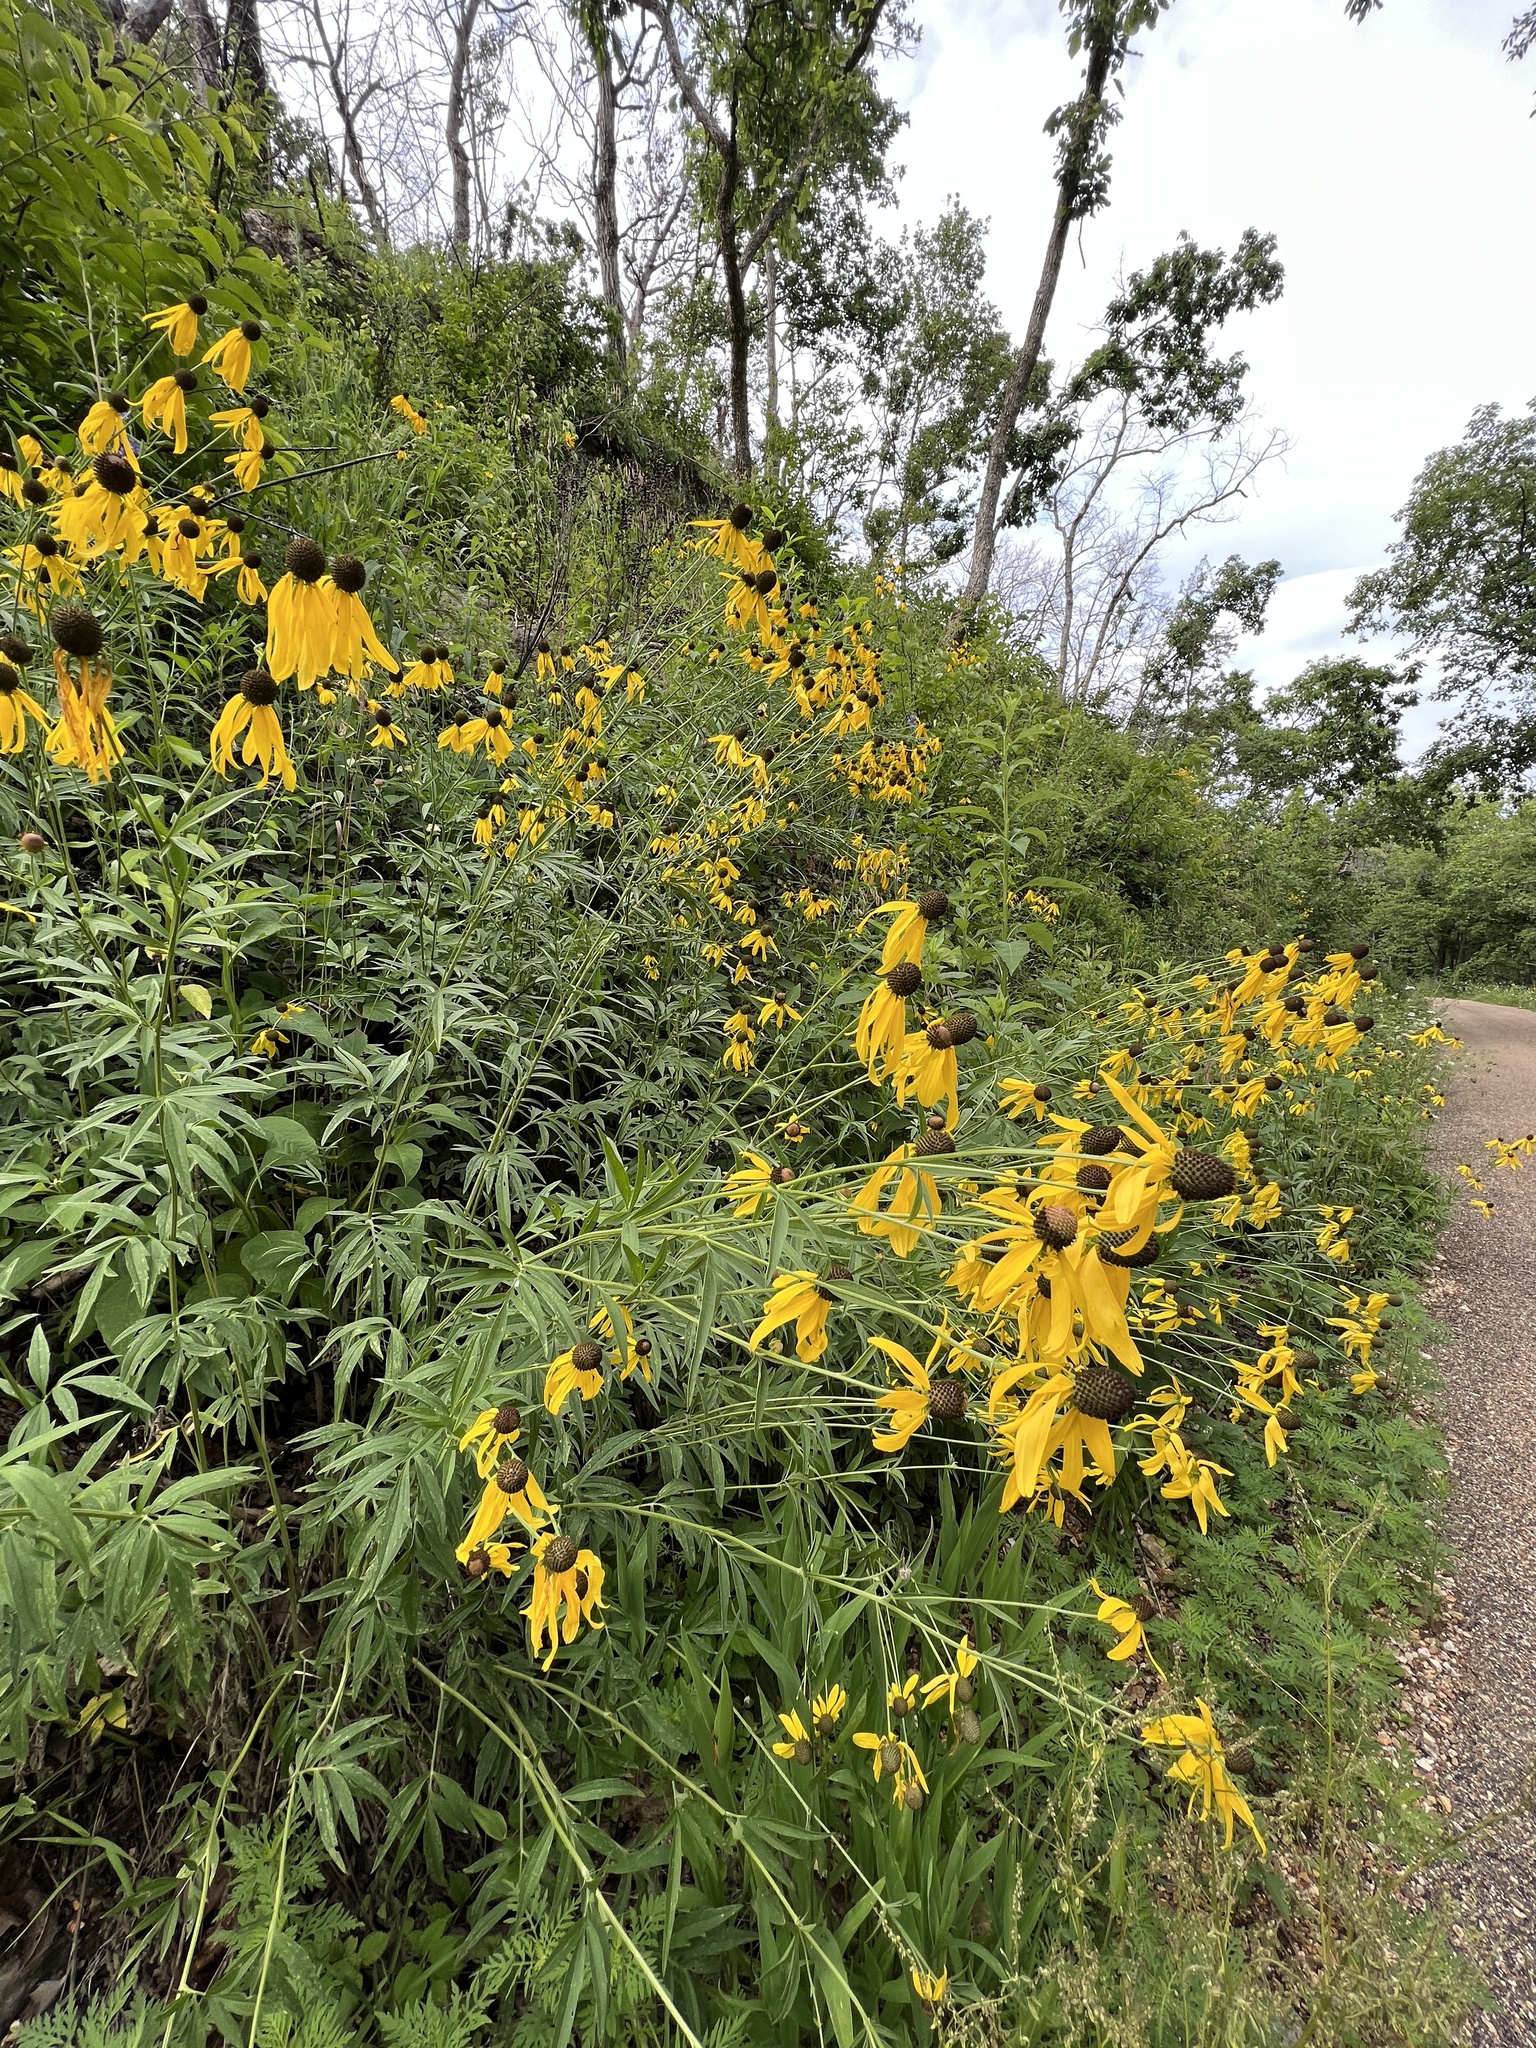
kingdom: Plantae
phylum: Tracheophyta
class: Magnoliopsida
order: Asterales
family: Asteraceae
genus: Ratibida
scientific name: Ratibida pinnata
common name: Drooping prairie-coneflower
